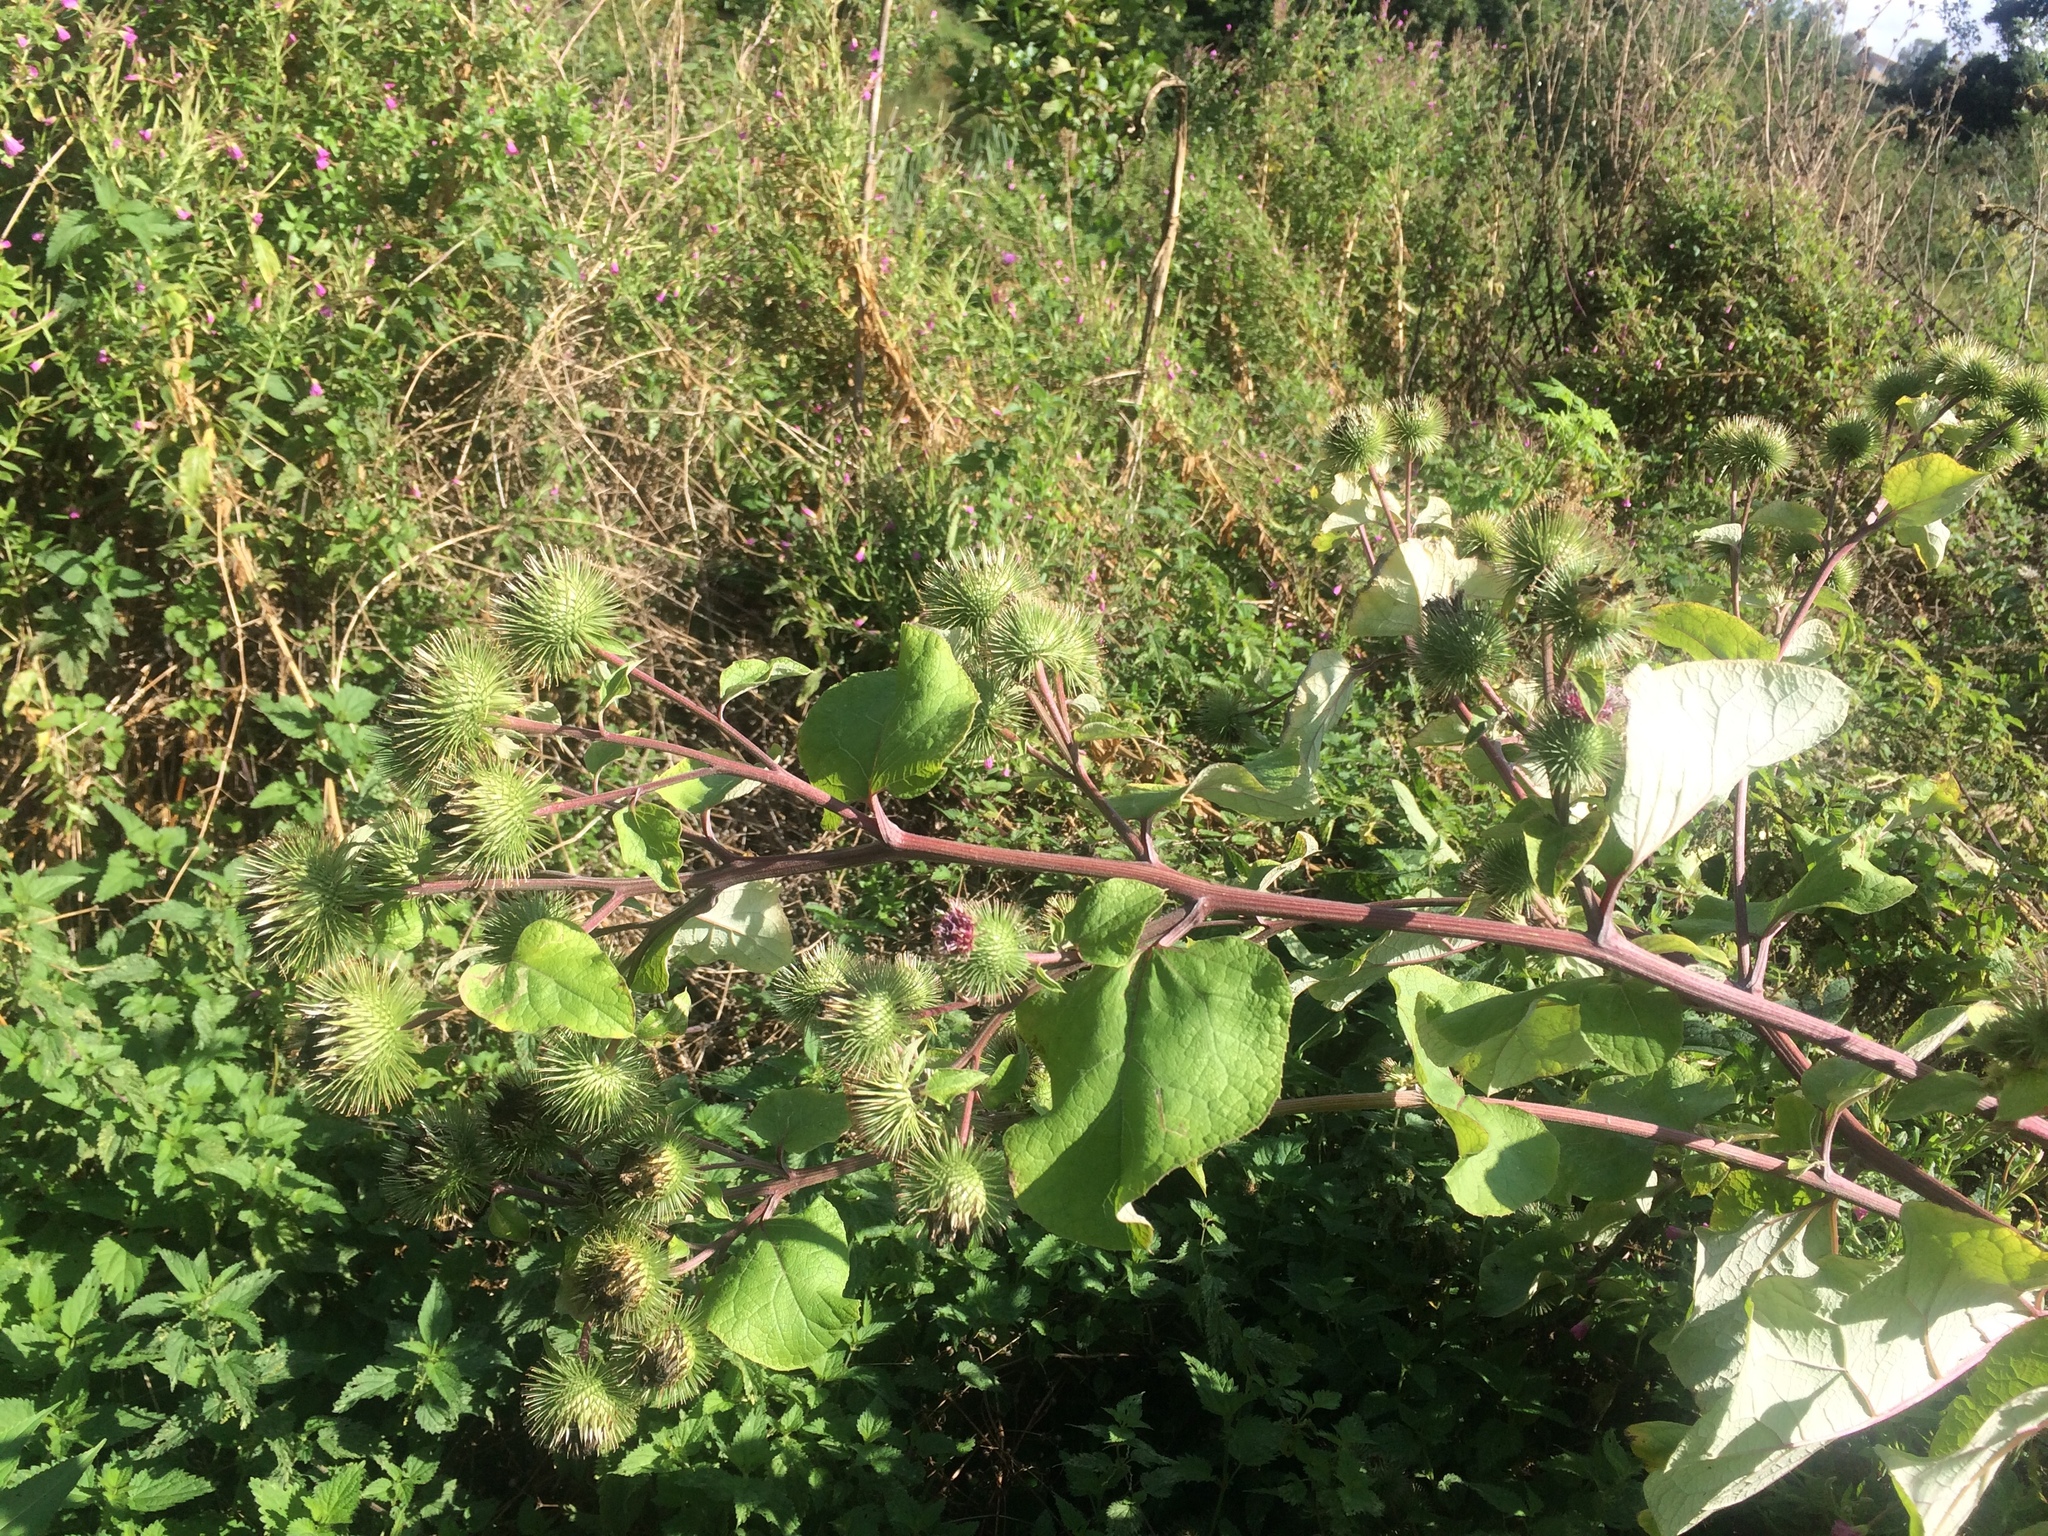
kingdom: Plantae
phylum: Tracheophyta
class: Magnoliopsida
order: Asterales
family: Asteraceae
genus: Arctium
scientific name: Arctium lappa
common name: Greater burdock
